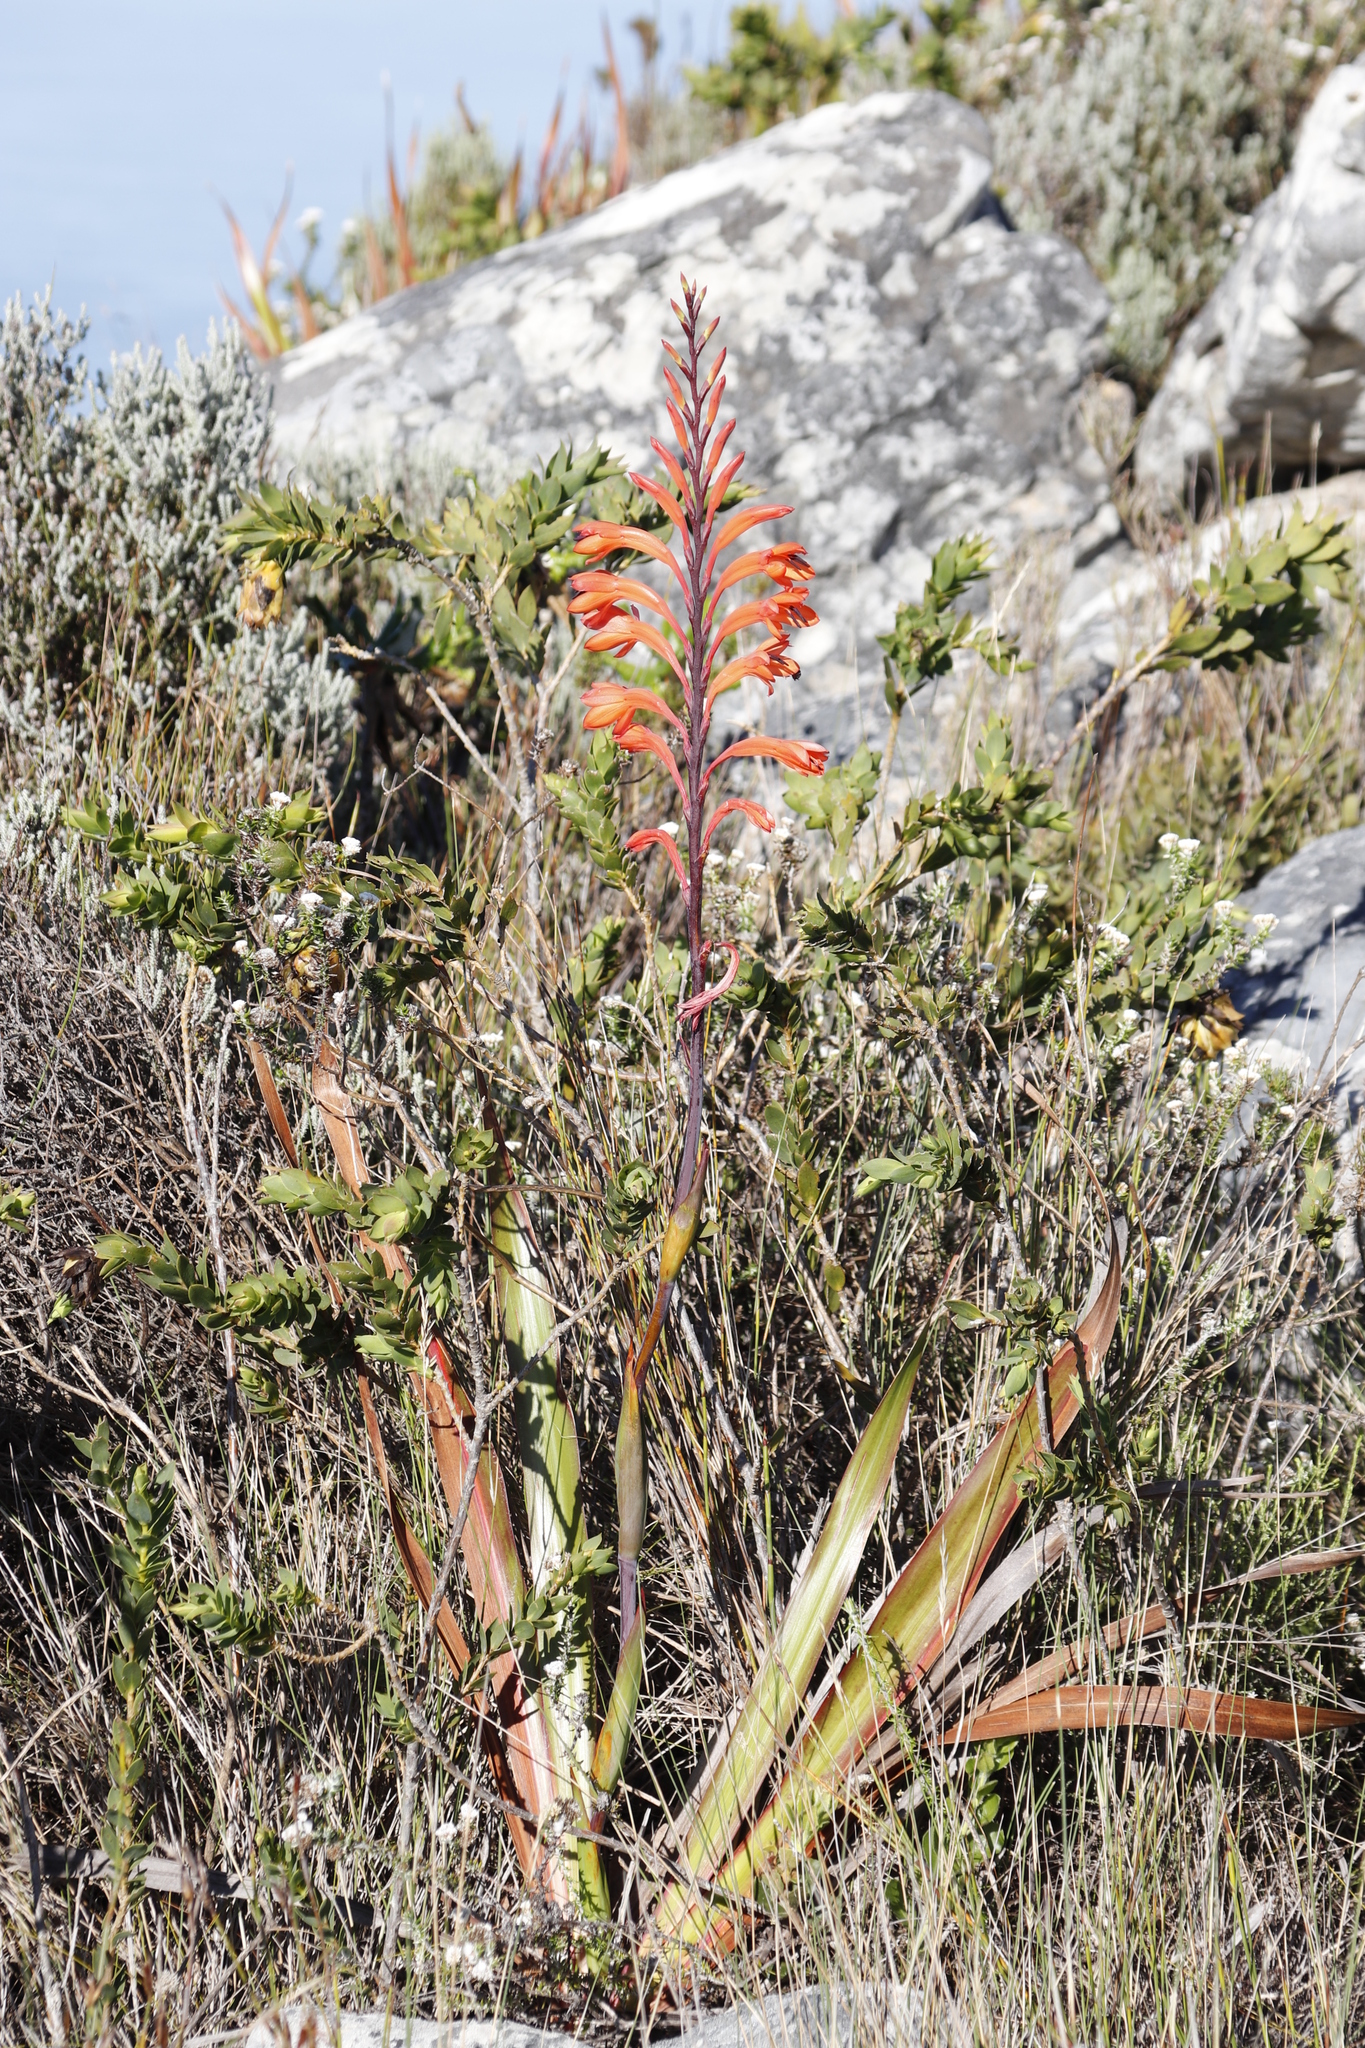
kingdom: Plantae
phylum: Tracheophyta
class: Liliopsida
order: Asparagales
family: Iridaceae
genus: Watsonia
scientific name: Watsonia tabularis
